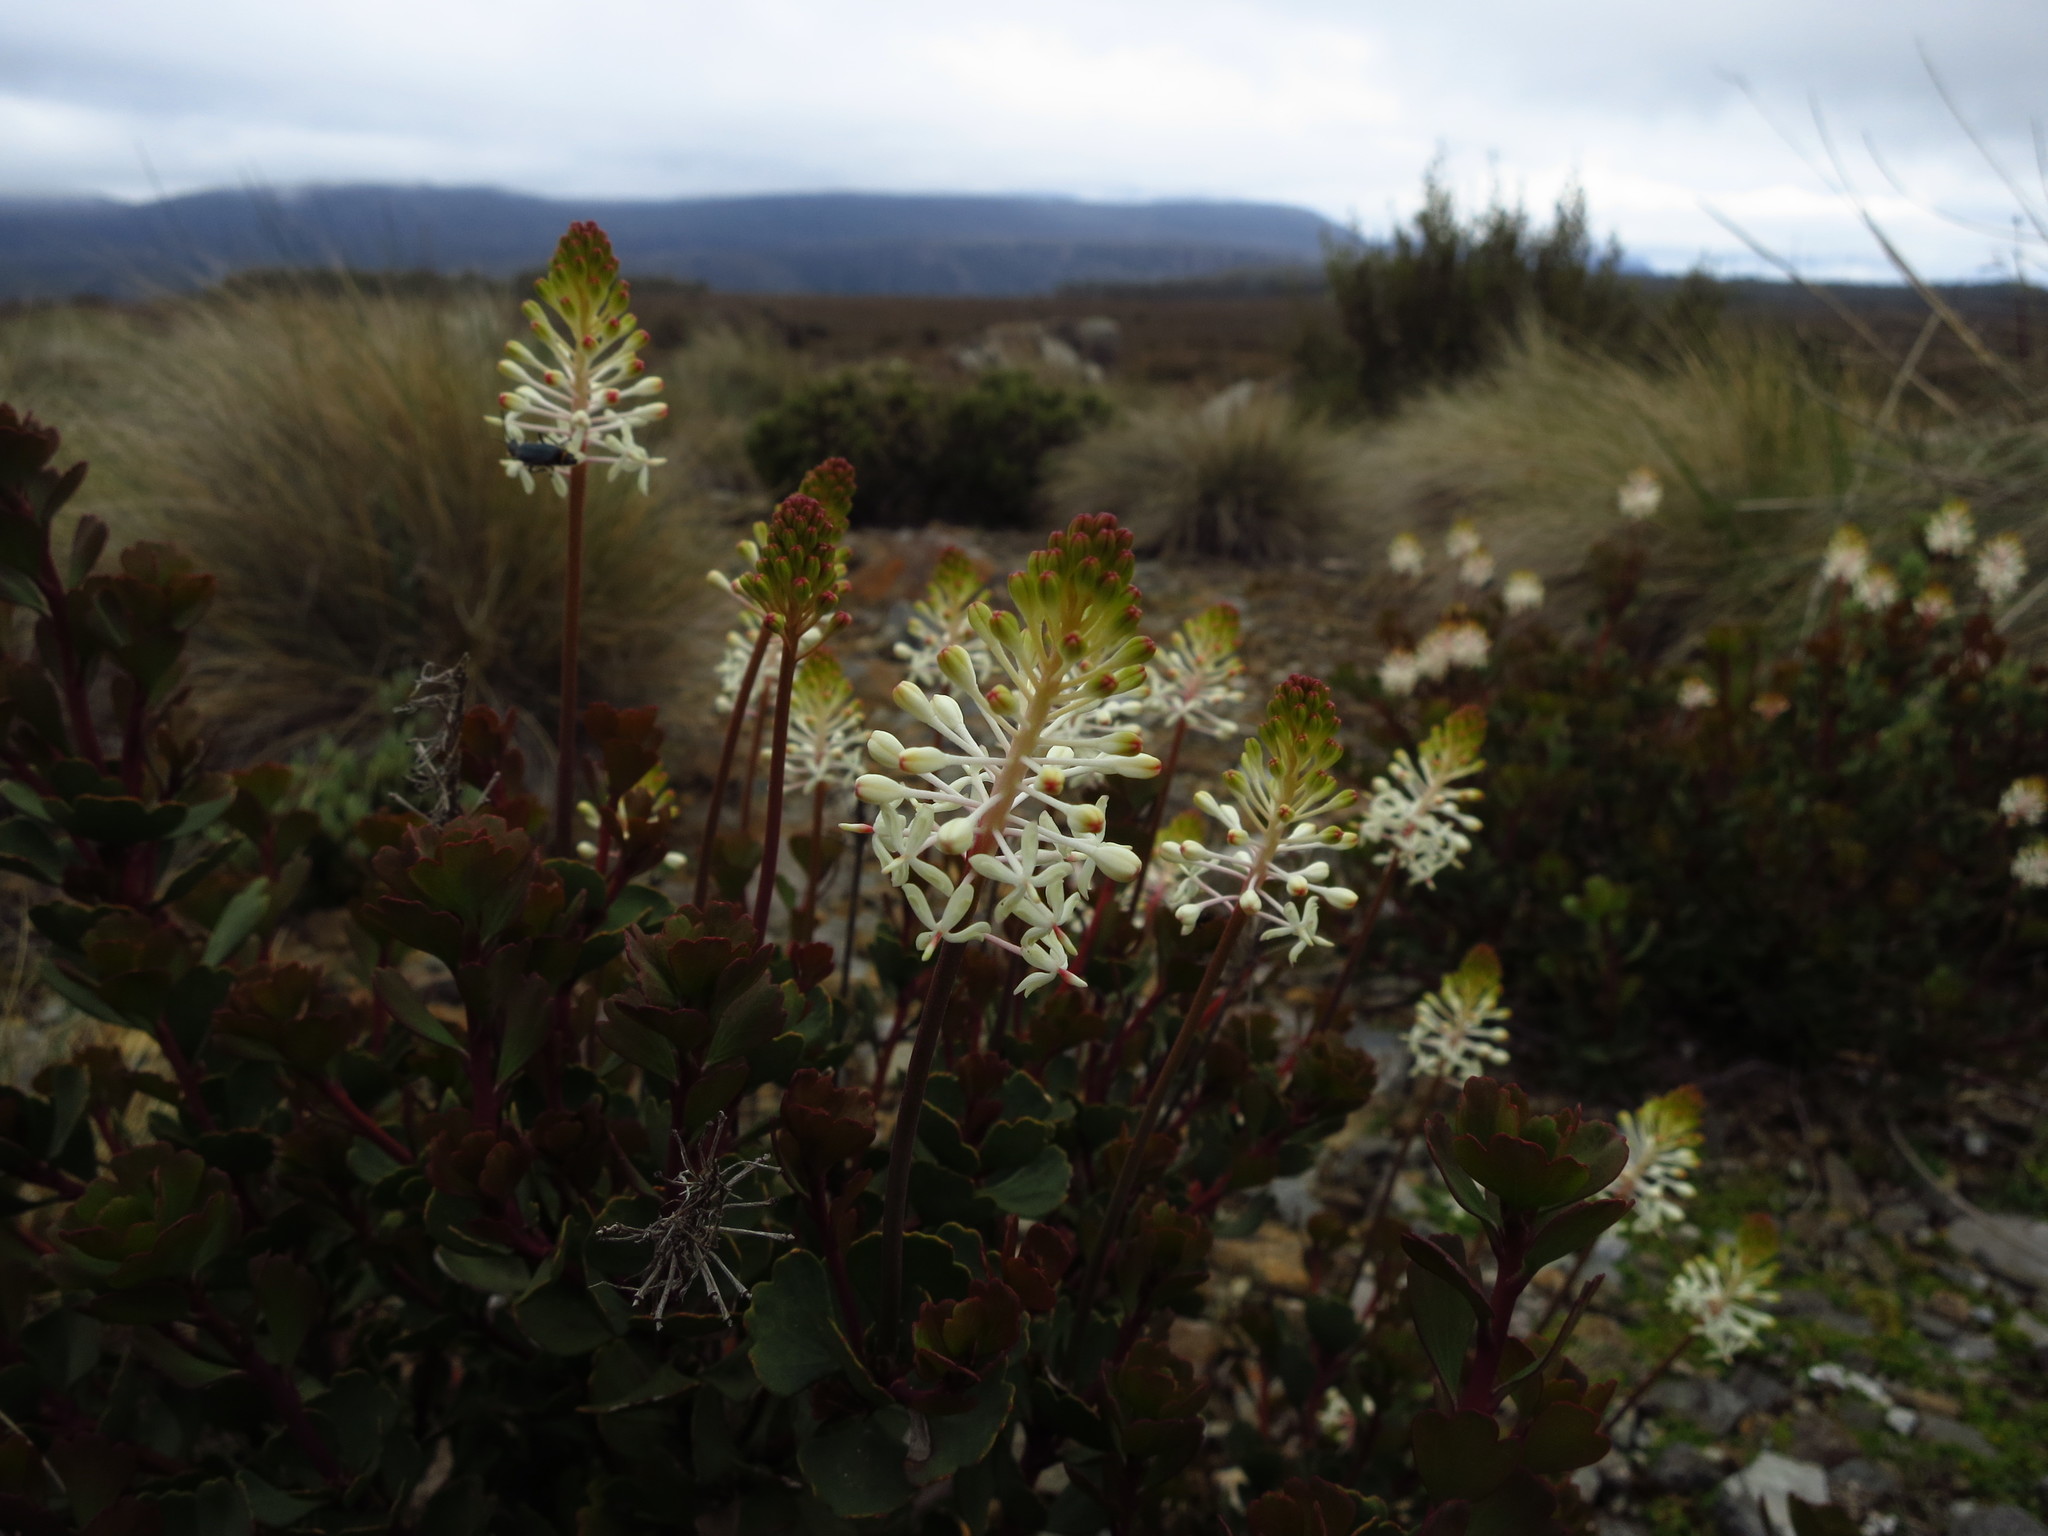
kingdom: Plantae
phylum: Tracheophyta
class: Magnoliopsida
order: Proteales
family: Proteaceae
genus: Bellendena
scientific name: Bellendena montana
